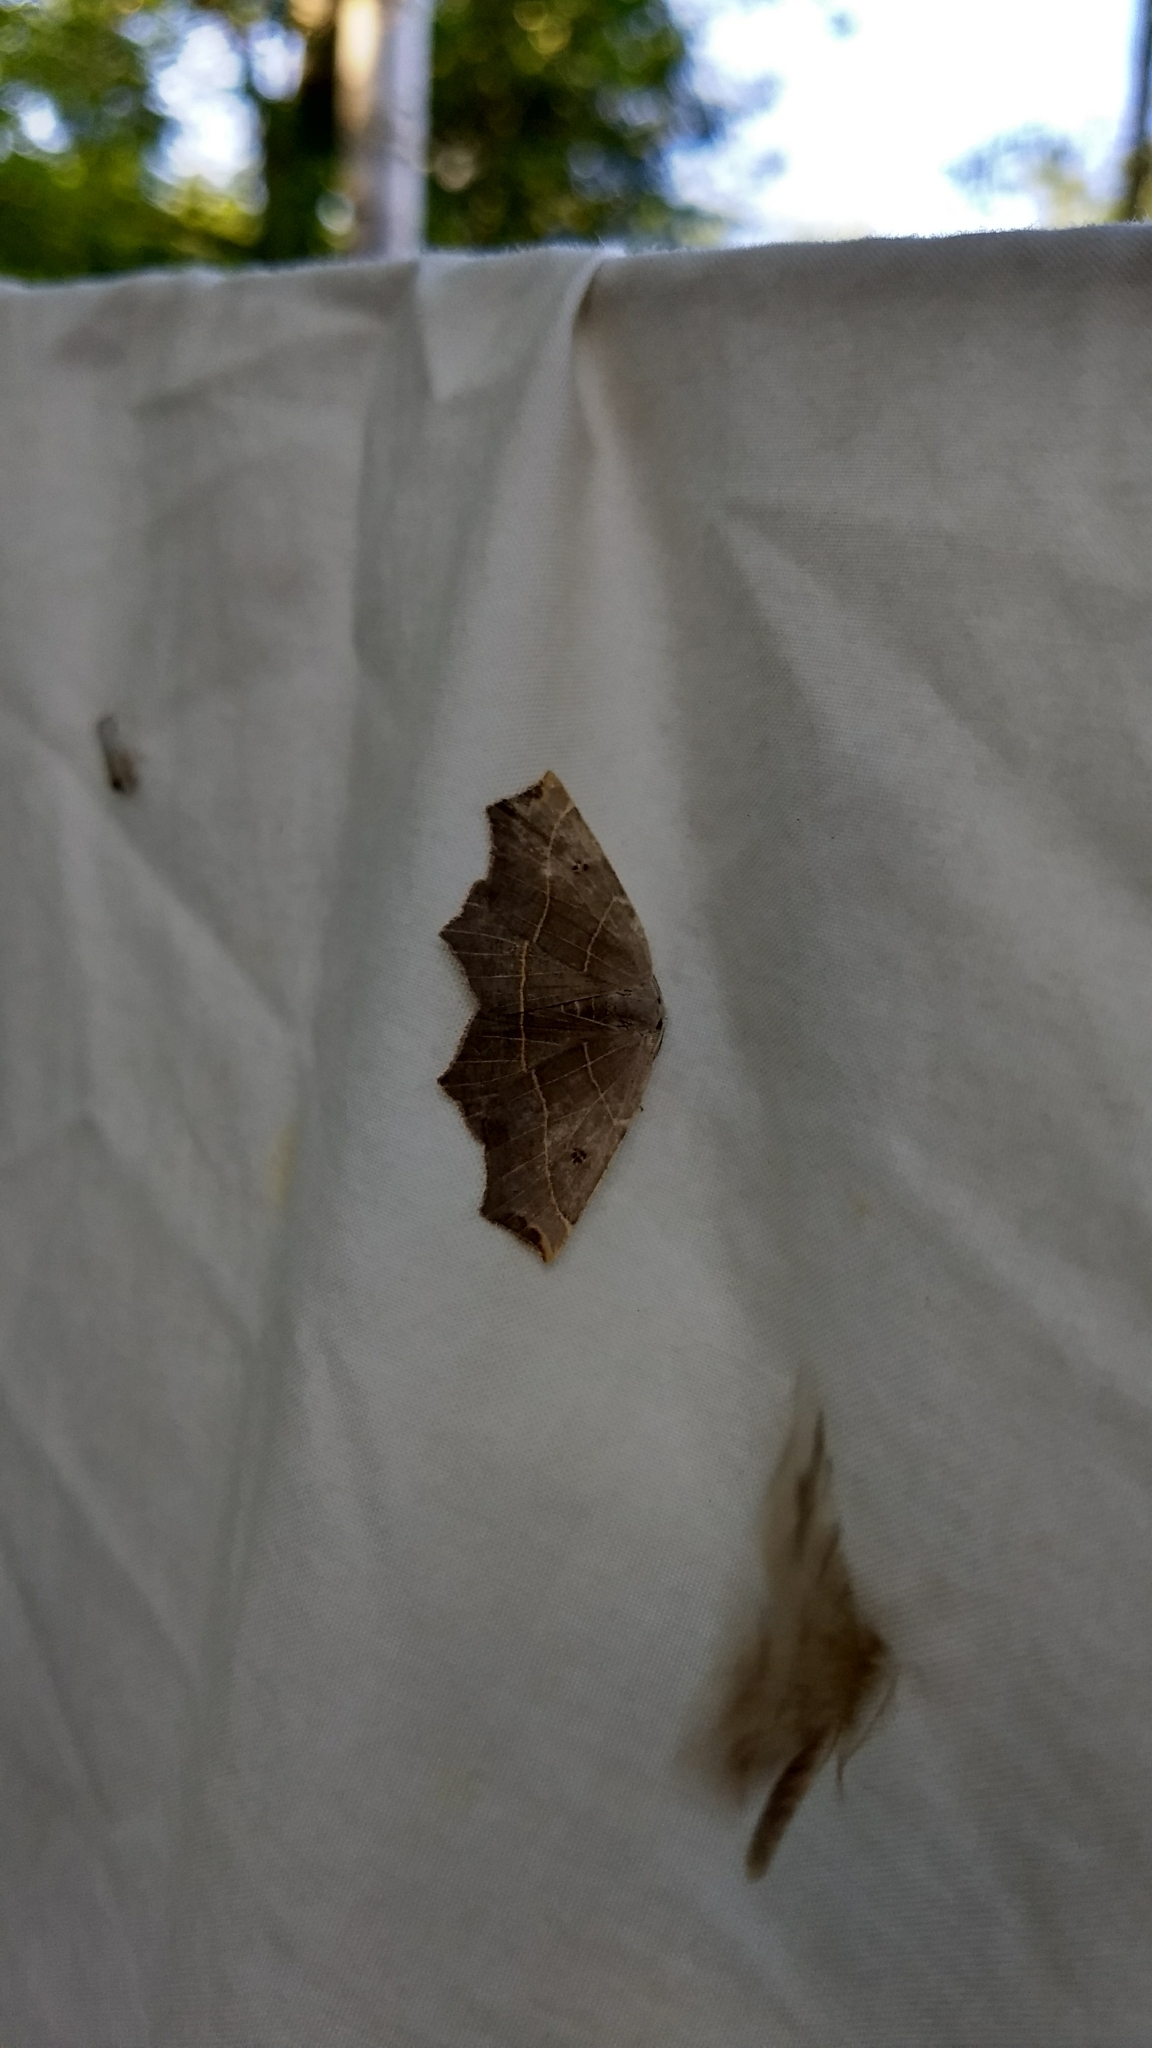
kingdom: Animalia
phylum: Arthropoda
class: Insecta
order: Lepidoptera
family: Geometridae
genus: Metanema
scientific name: Metanema inatomaria
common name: Pale metanema
